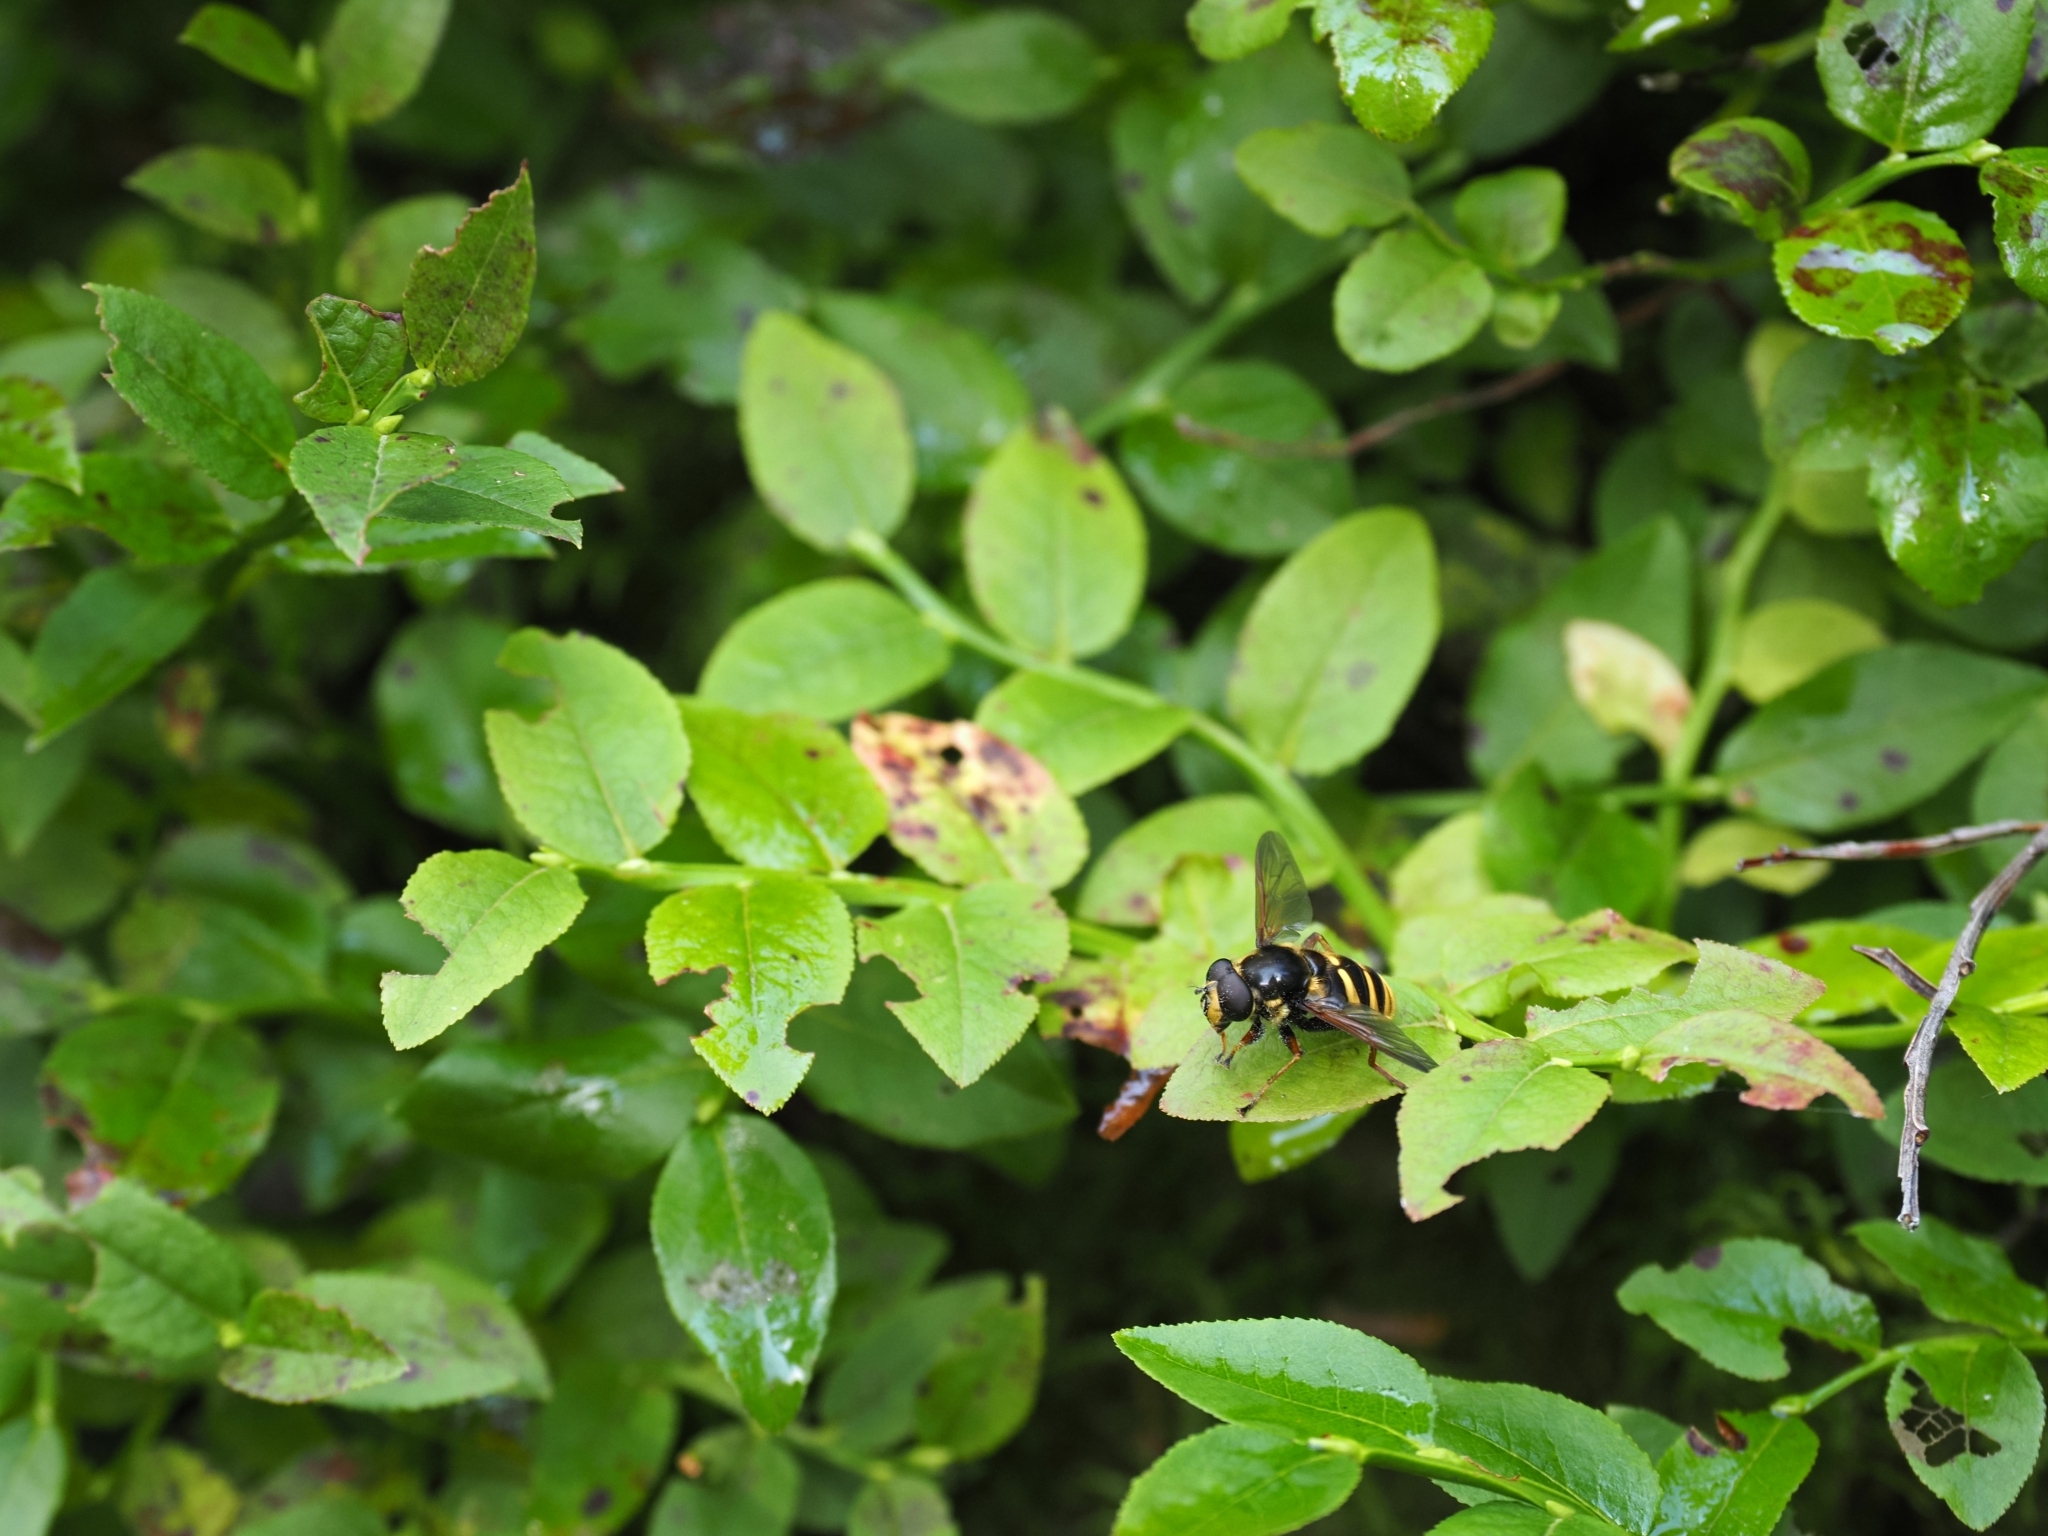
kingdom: Animalia
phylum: Arthropoda
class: Insecta
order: Diptera
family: Syrphidae
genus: Sericomyia
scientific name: Sericomyia silentis
